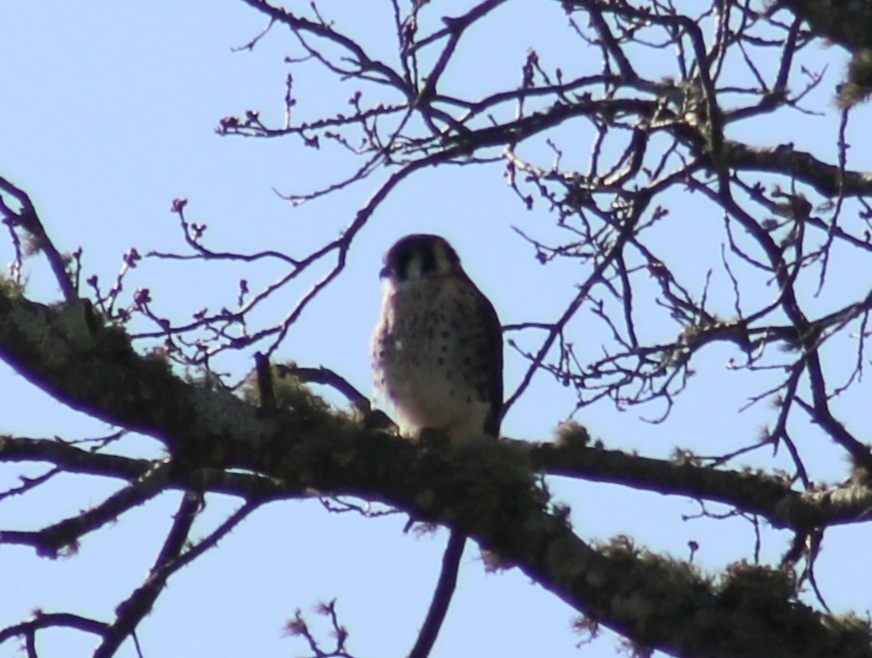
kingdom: Animalia
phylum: Chordata
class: Aves
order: Falconiformes
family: Falconidae
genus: Falco
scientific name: Falco sparverius
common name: American kestrel
